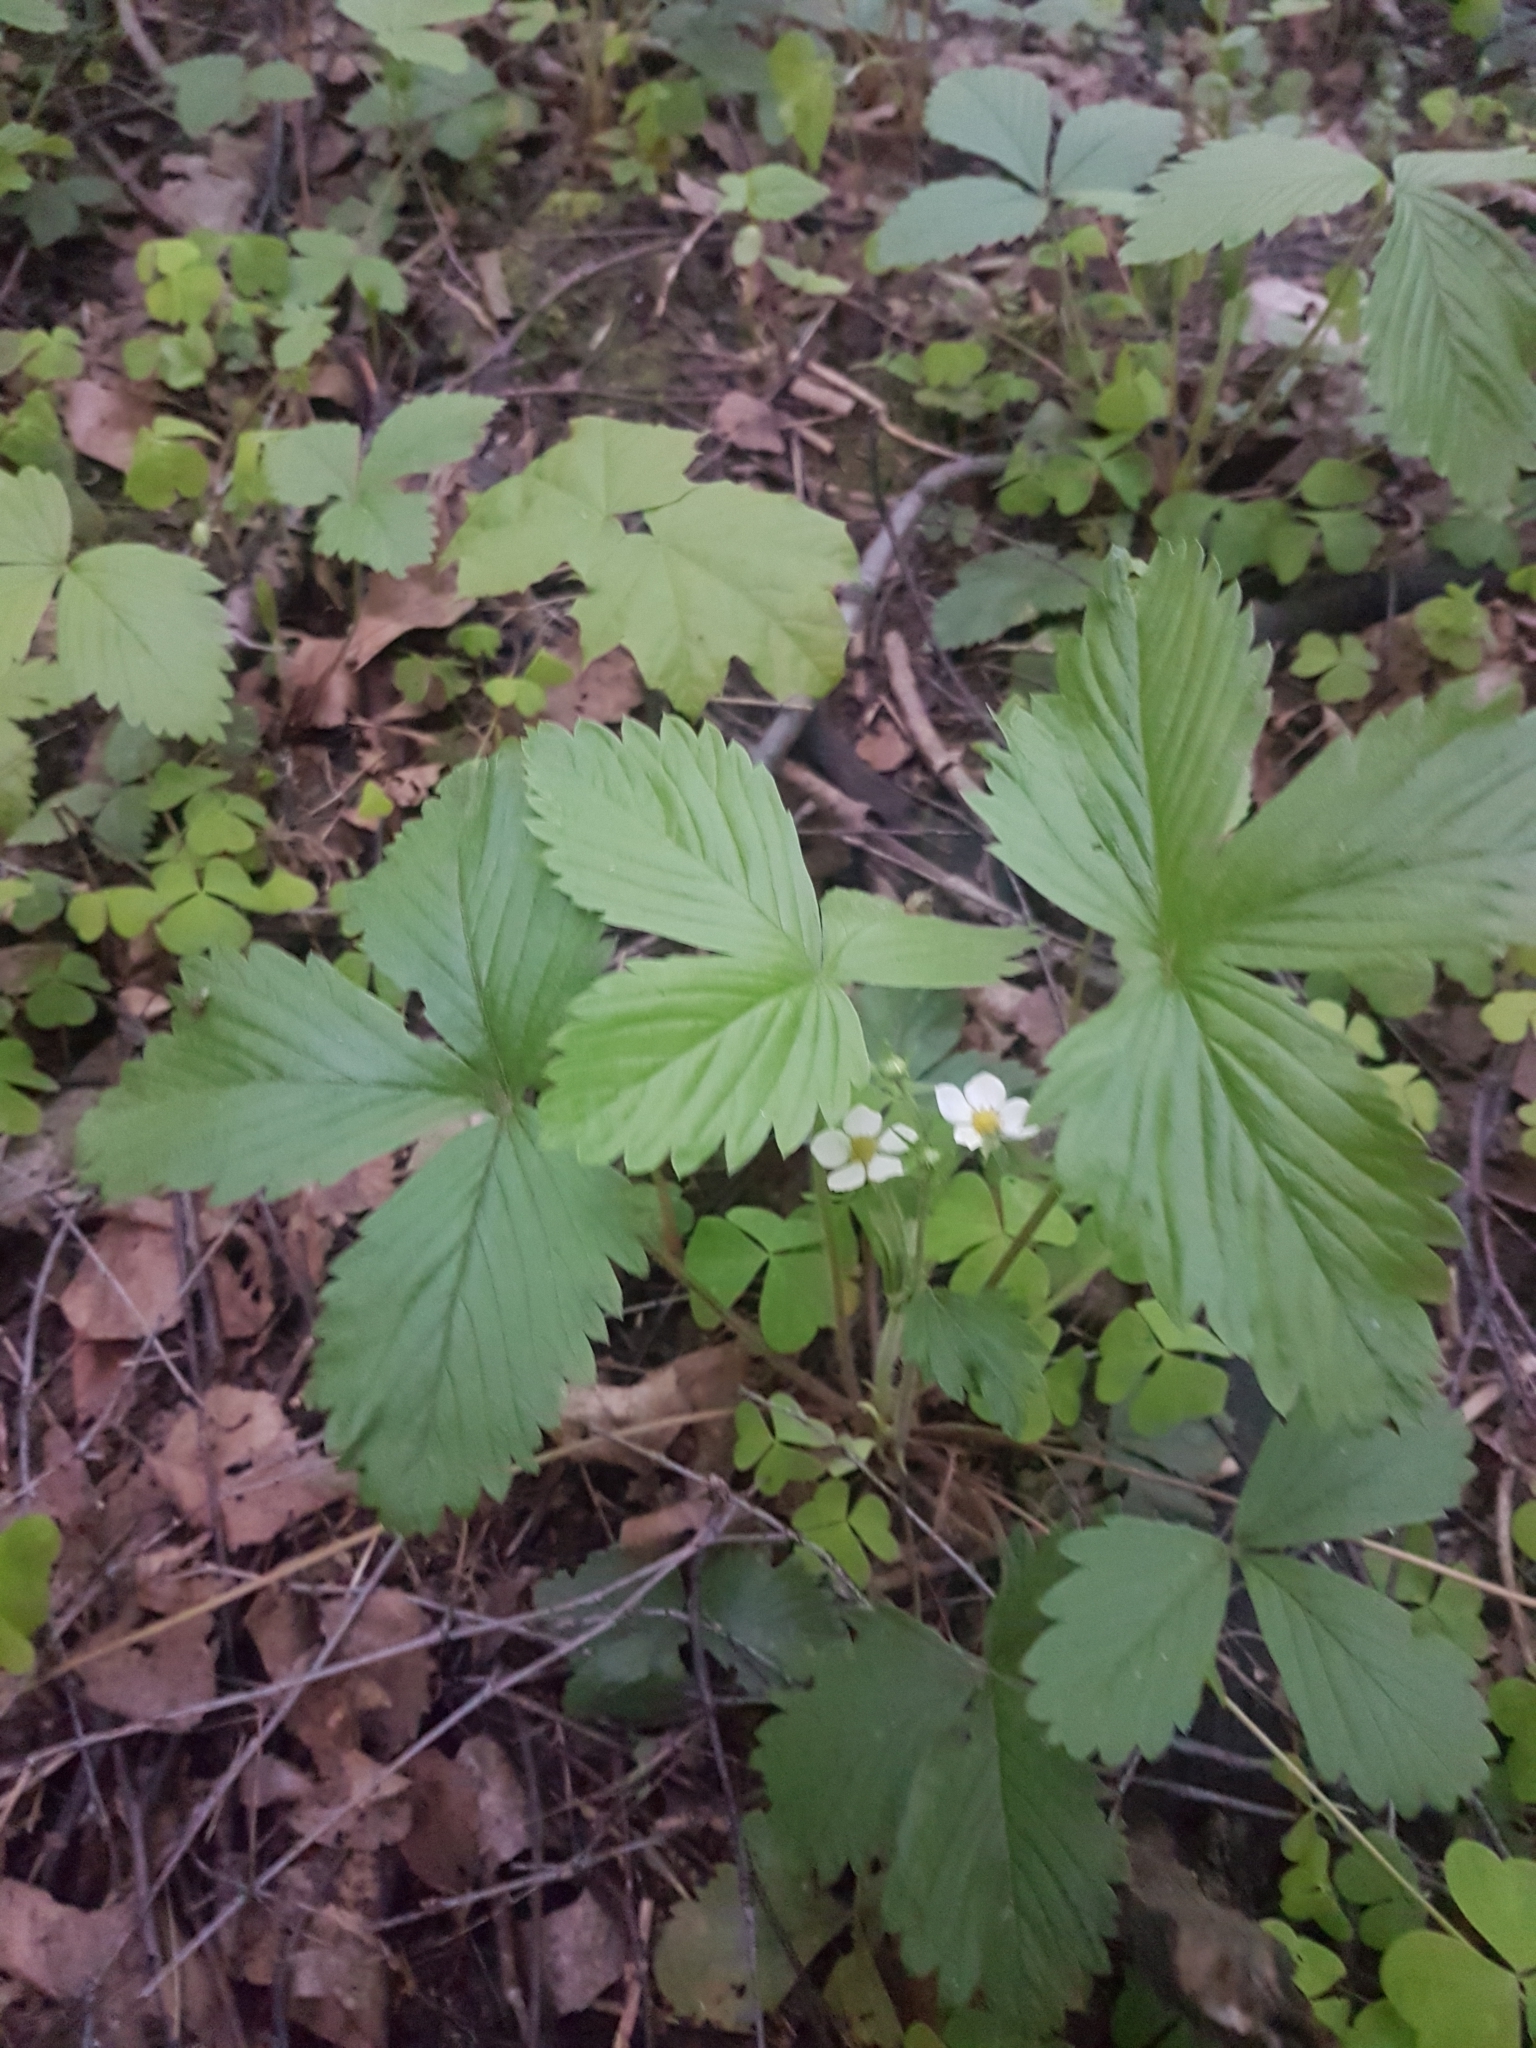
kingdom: Plantae
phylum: Tracheophyta
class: Magnoliopsida
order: Rosales
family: Rosaceae
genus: Fragaria
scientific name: Fragaria vesca
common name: Wild strawberry
